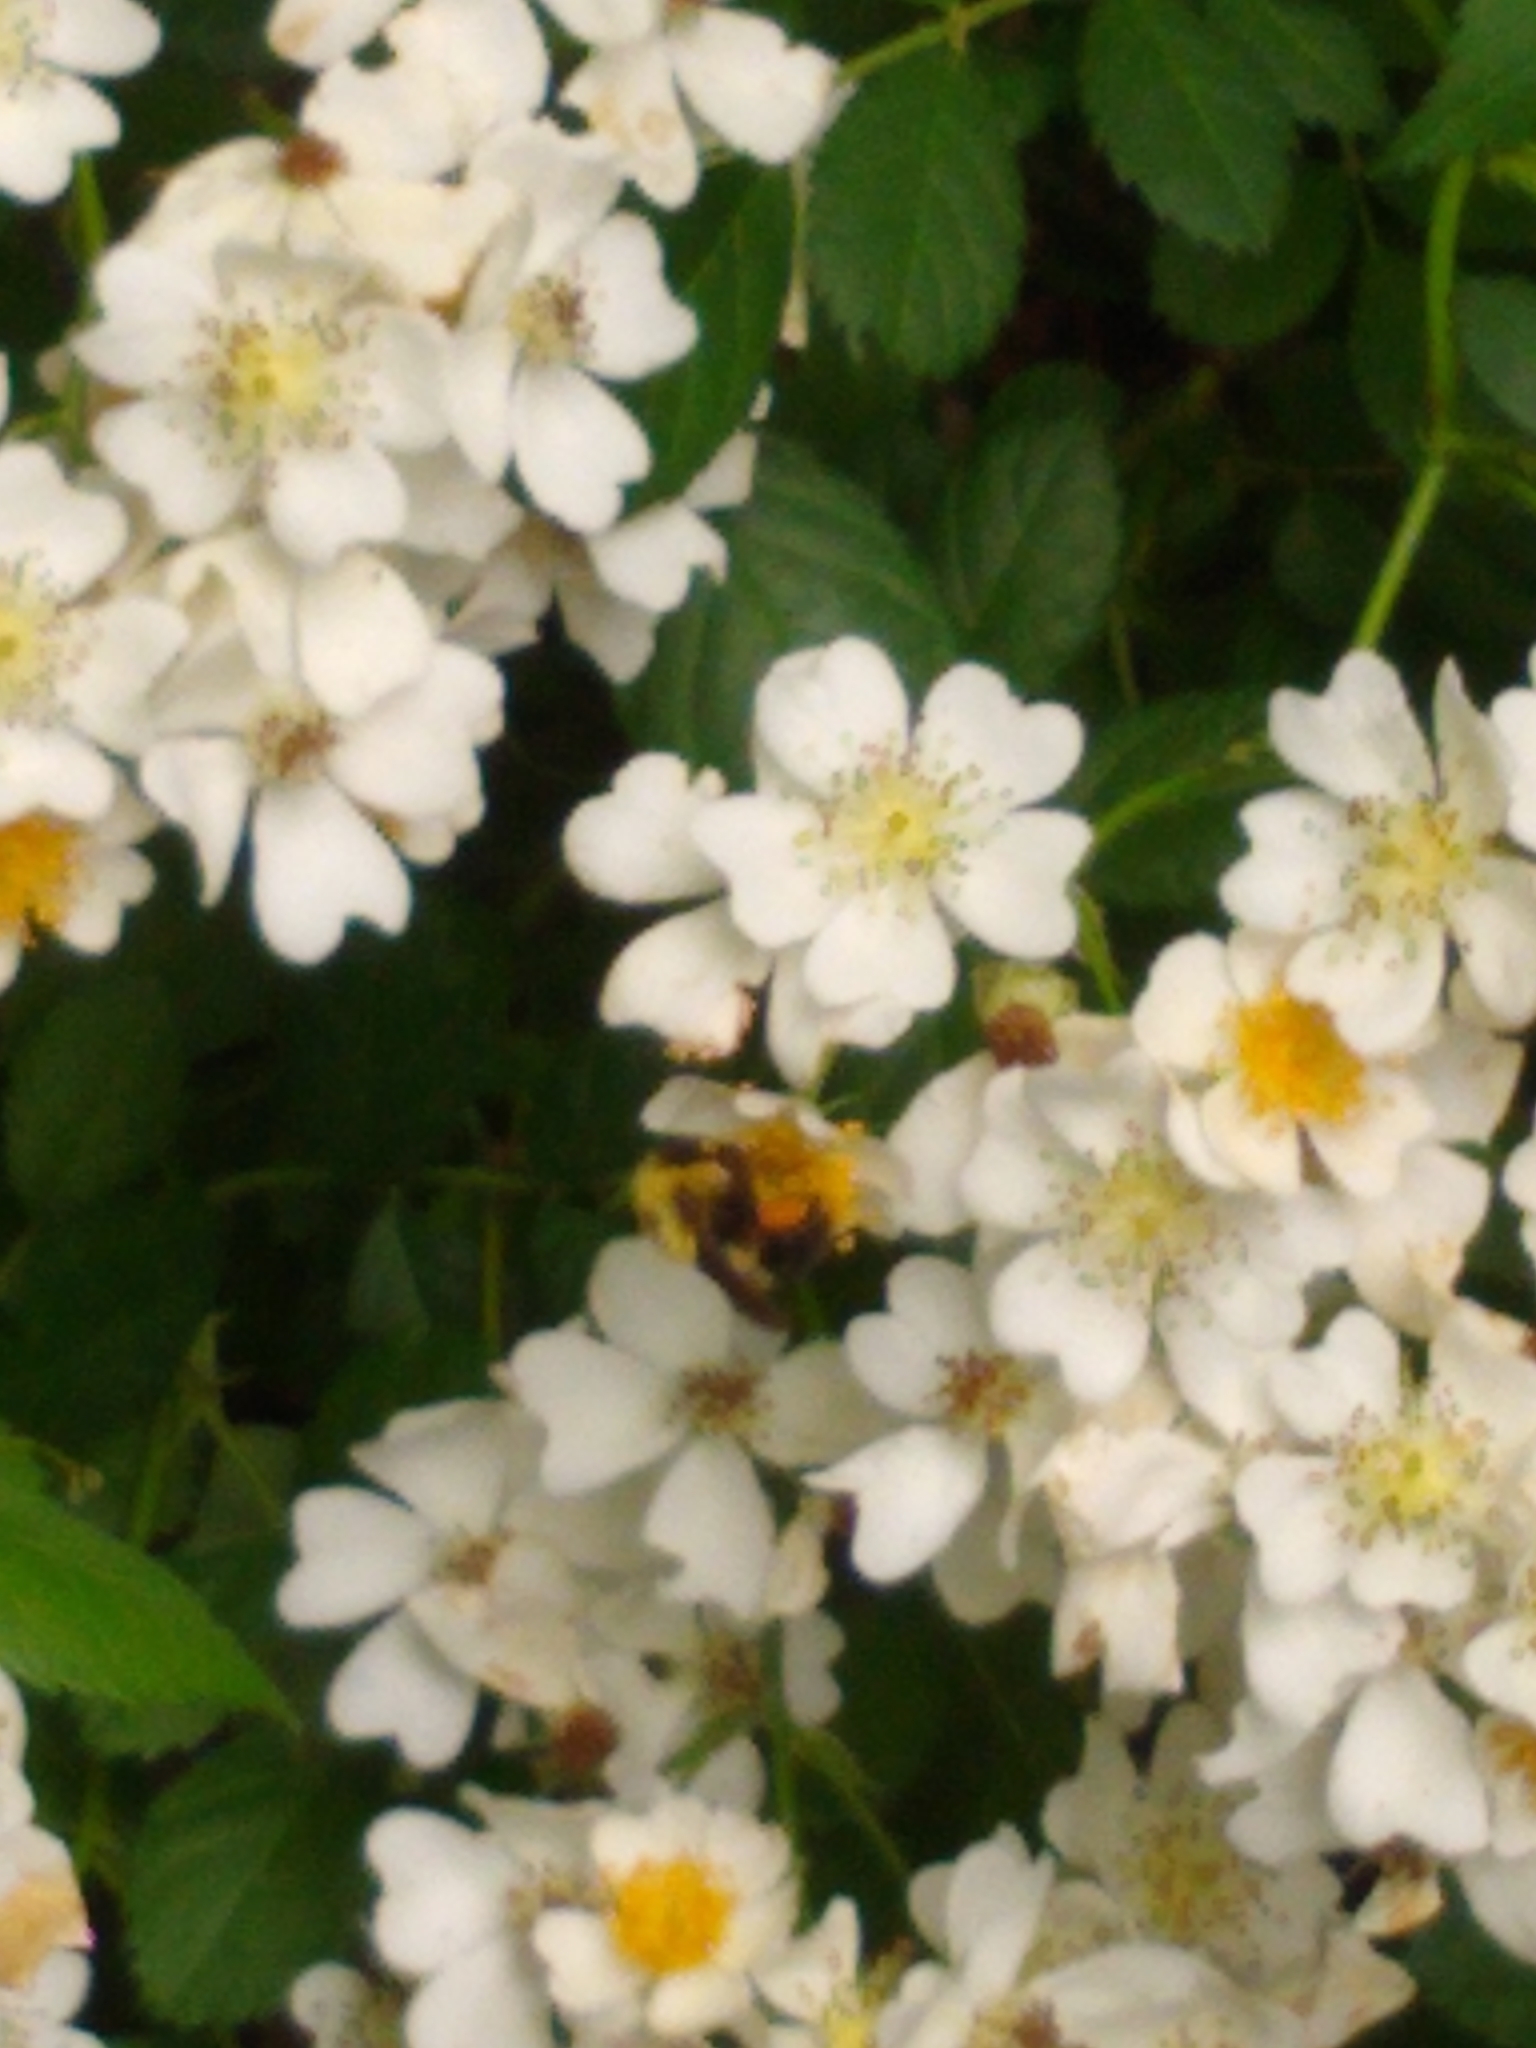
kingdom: Animalia
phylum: Arthropoda
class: Insecta
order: Hymenoptera
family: Apidae
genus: Bombus
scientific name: Bombus bimaculatus
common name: Two-spotted bumble bee
